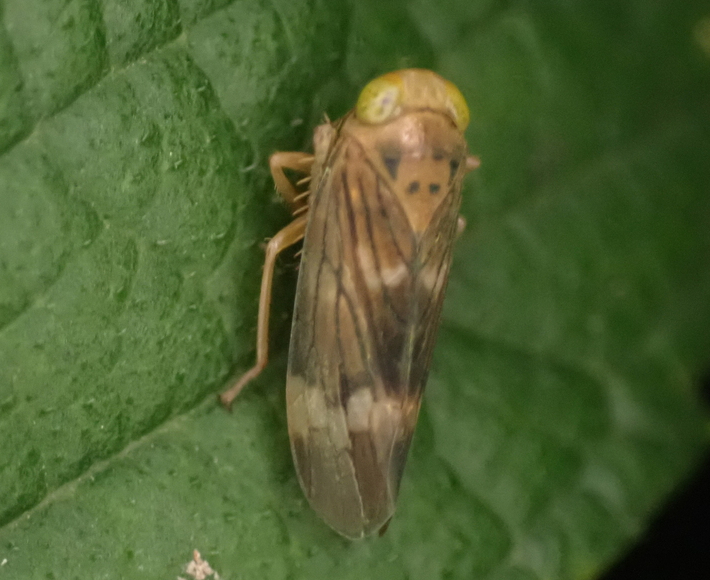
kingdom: Animalia
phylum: Arthropoda
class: Insecta
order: Hemiptera
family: Cicadellidae
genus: Jikradia
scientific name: Jikradia olitoria
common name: Coppery leafhopper
